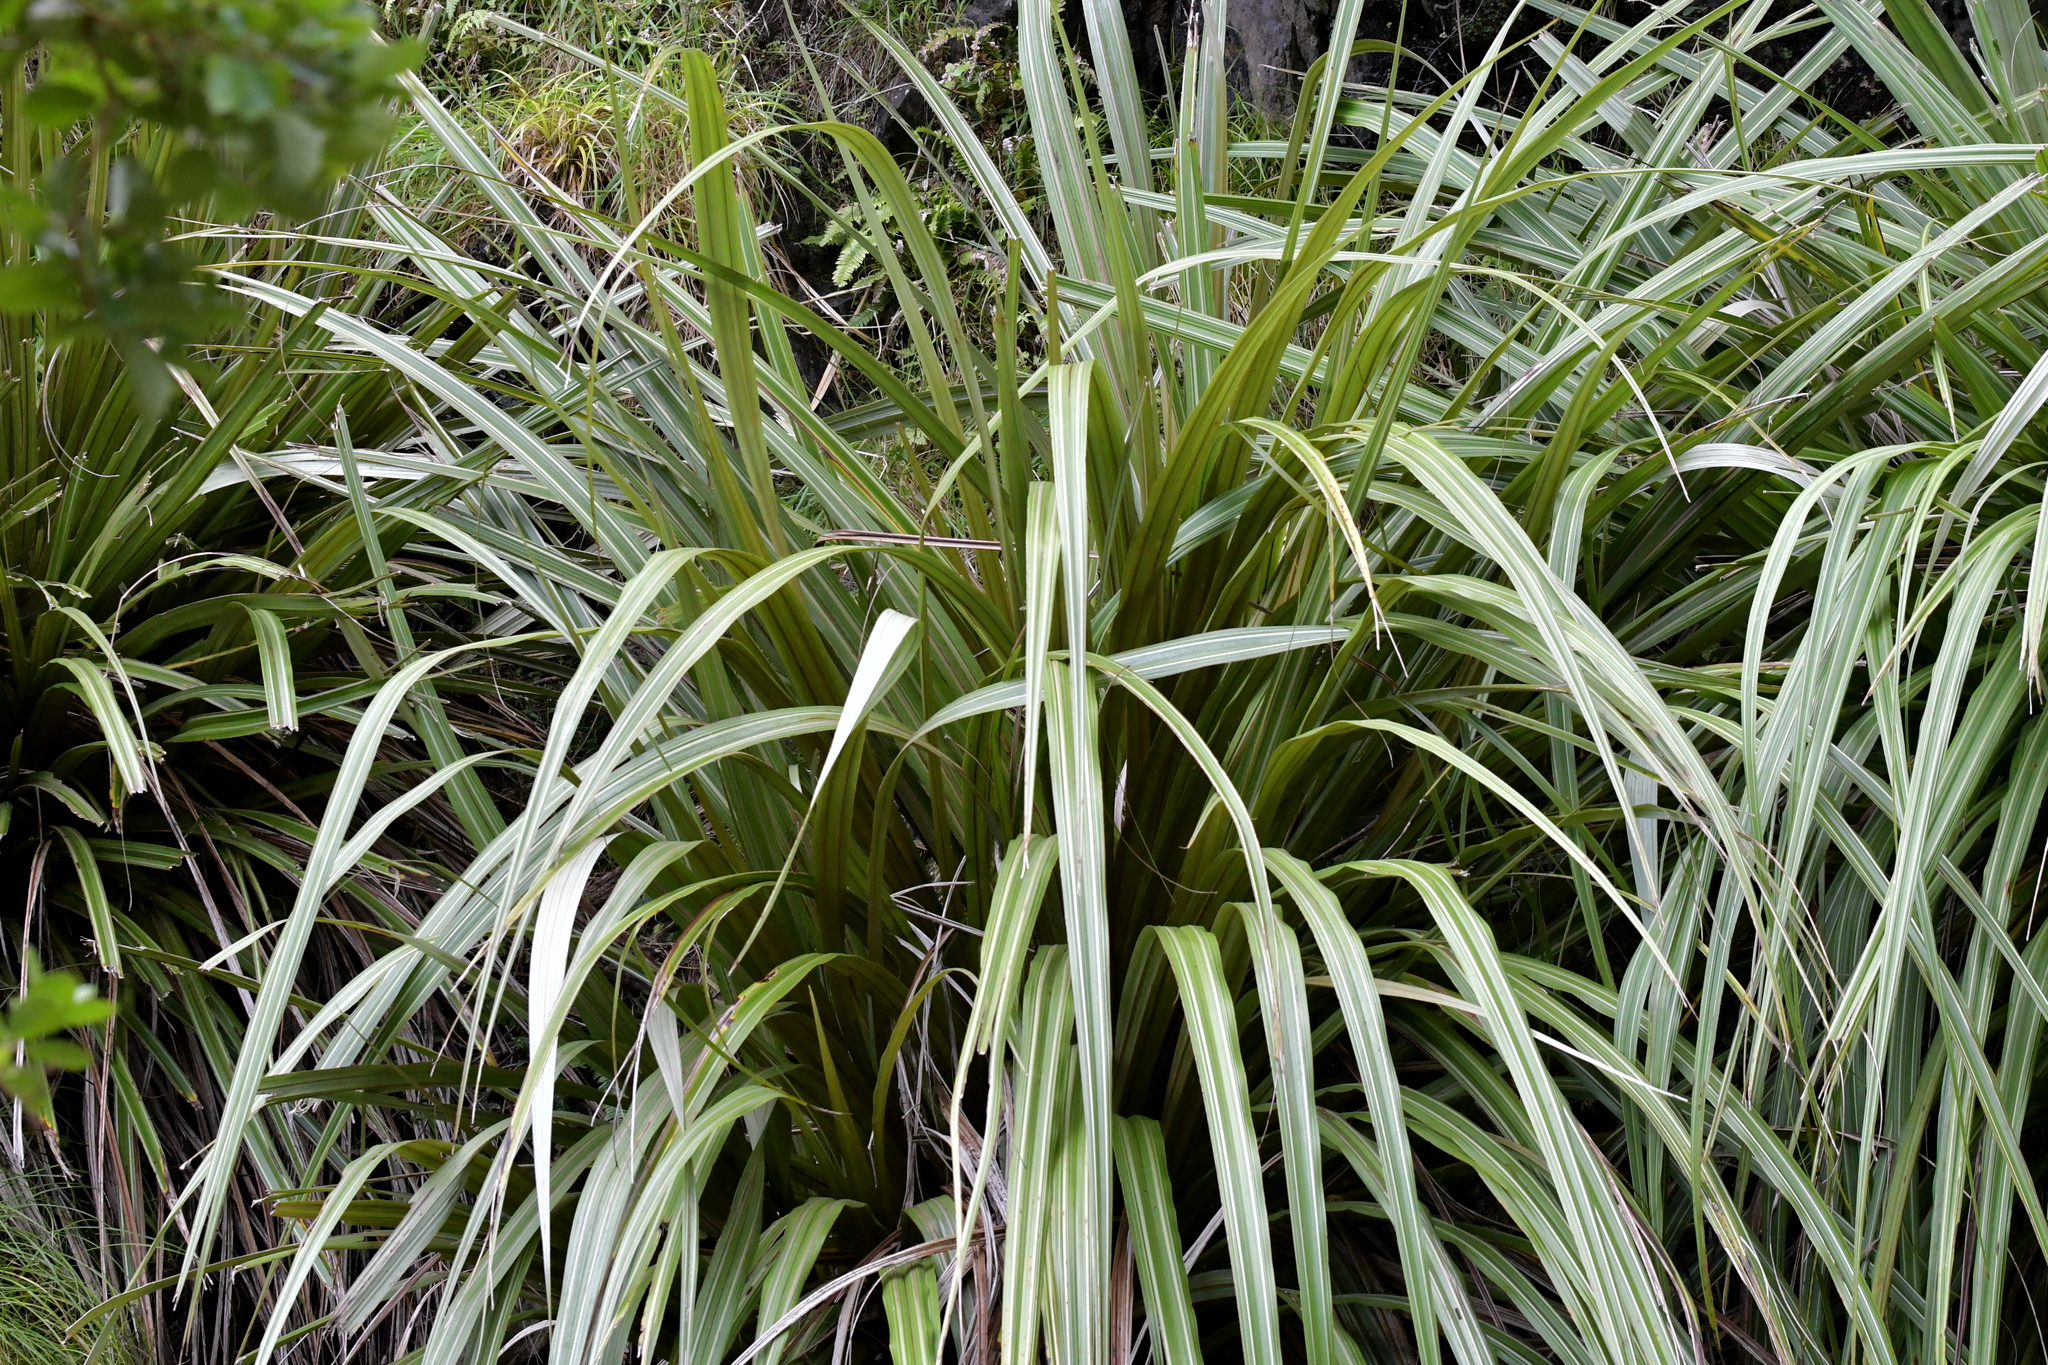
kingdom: Plantae
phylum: Tracheophyta
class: Liliopsida
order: Asparagales
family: Asteliaceae
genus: Astelia
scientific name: Astelia fragrans
